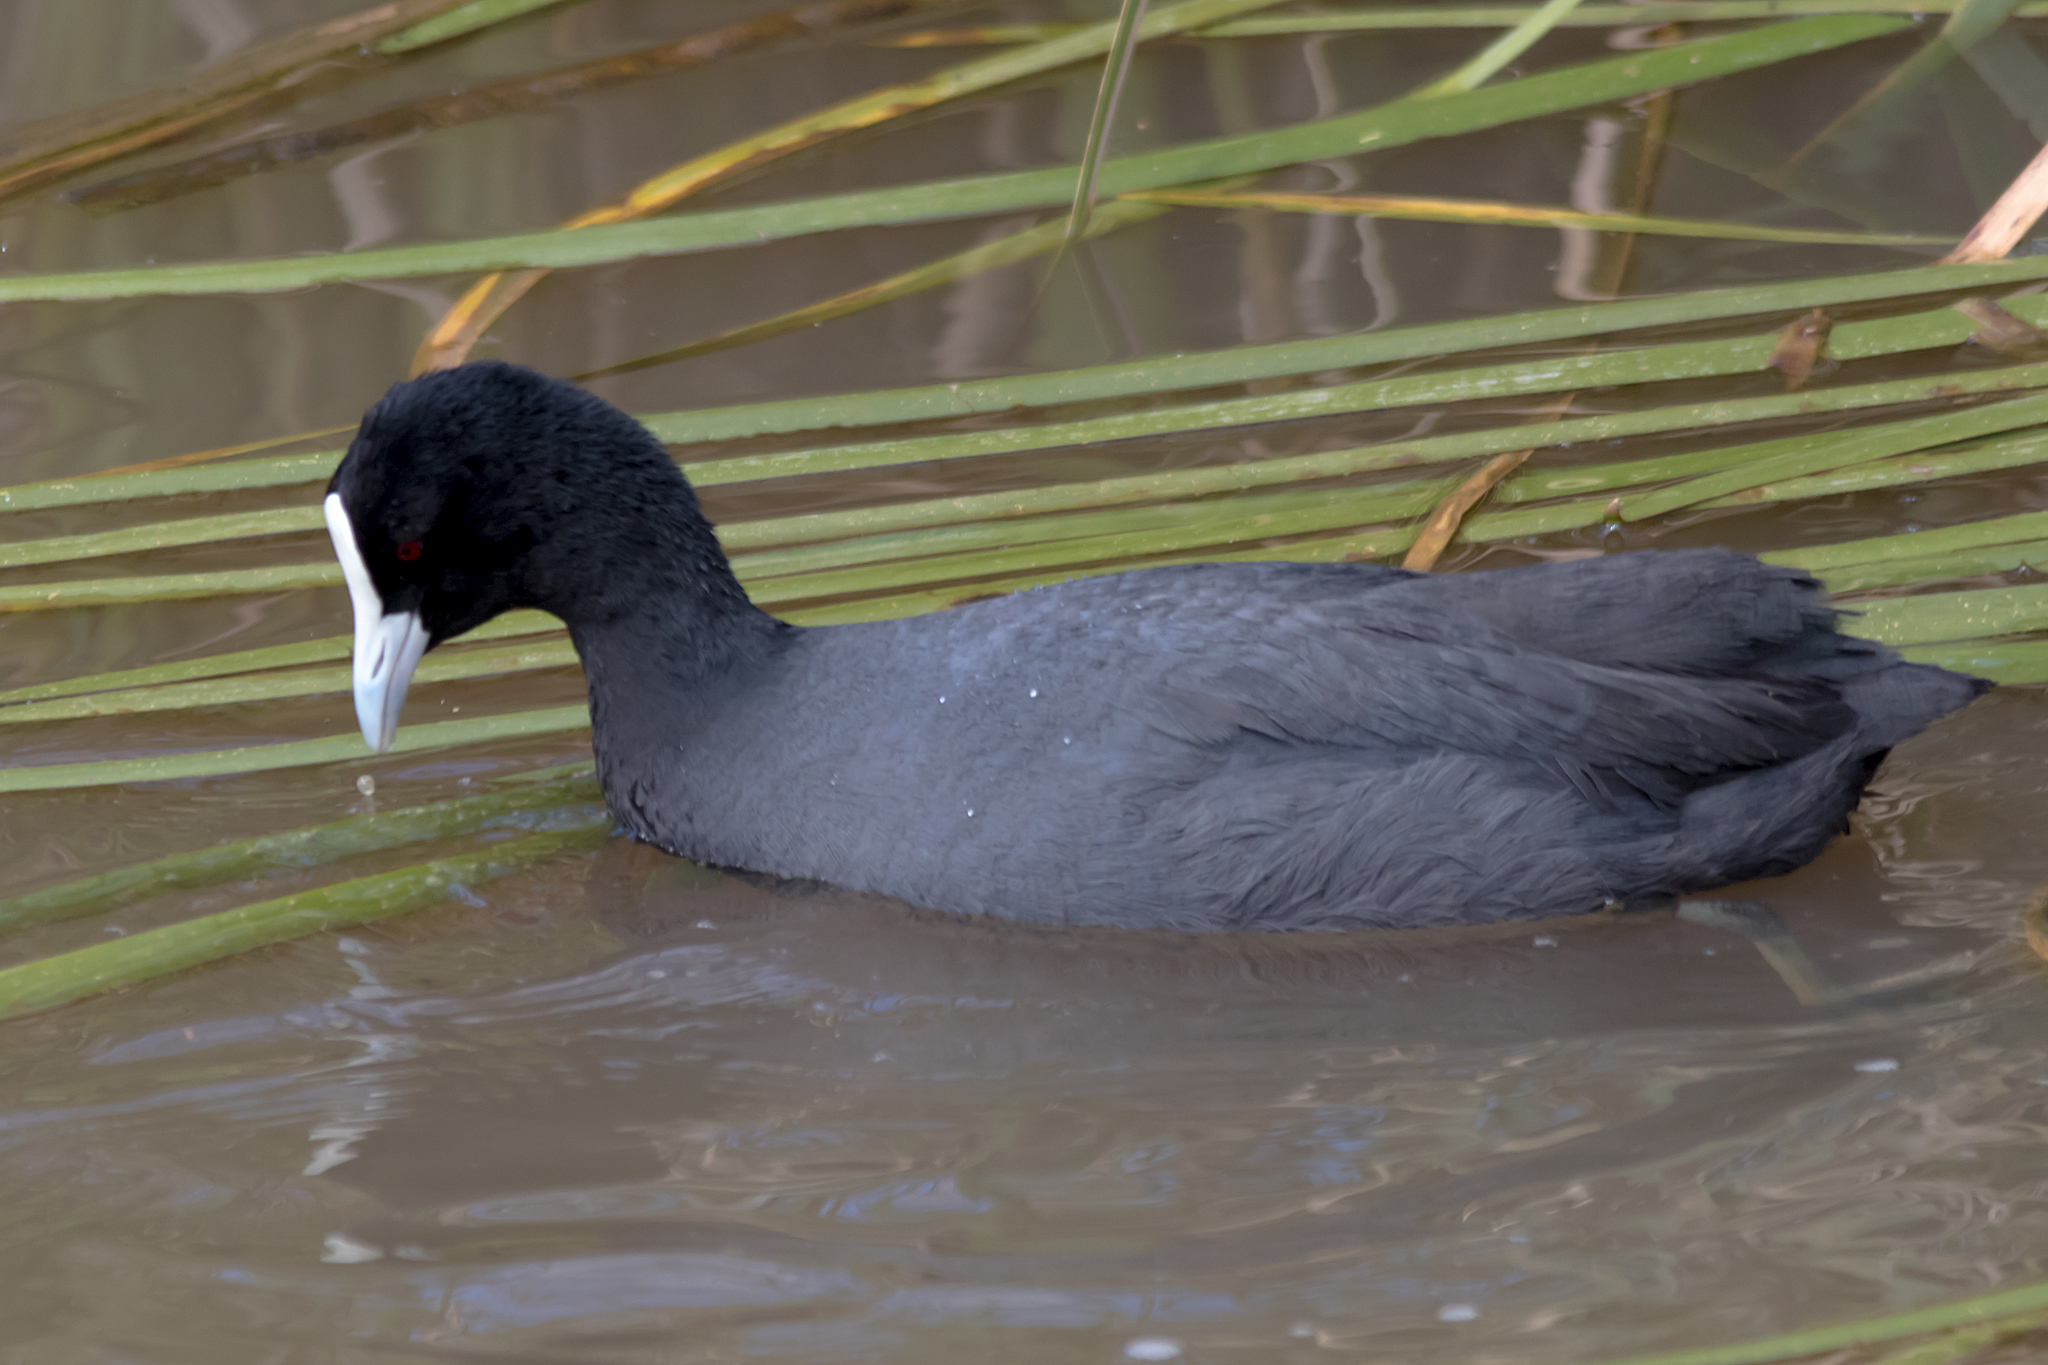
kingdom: Animalia
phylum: Chordata
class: Aves
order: Gruiformes
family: Rallidae
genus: Fulica
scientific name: Fulica atra
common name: Eurasian coot
